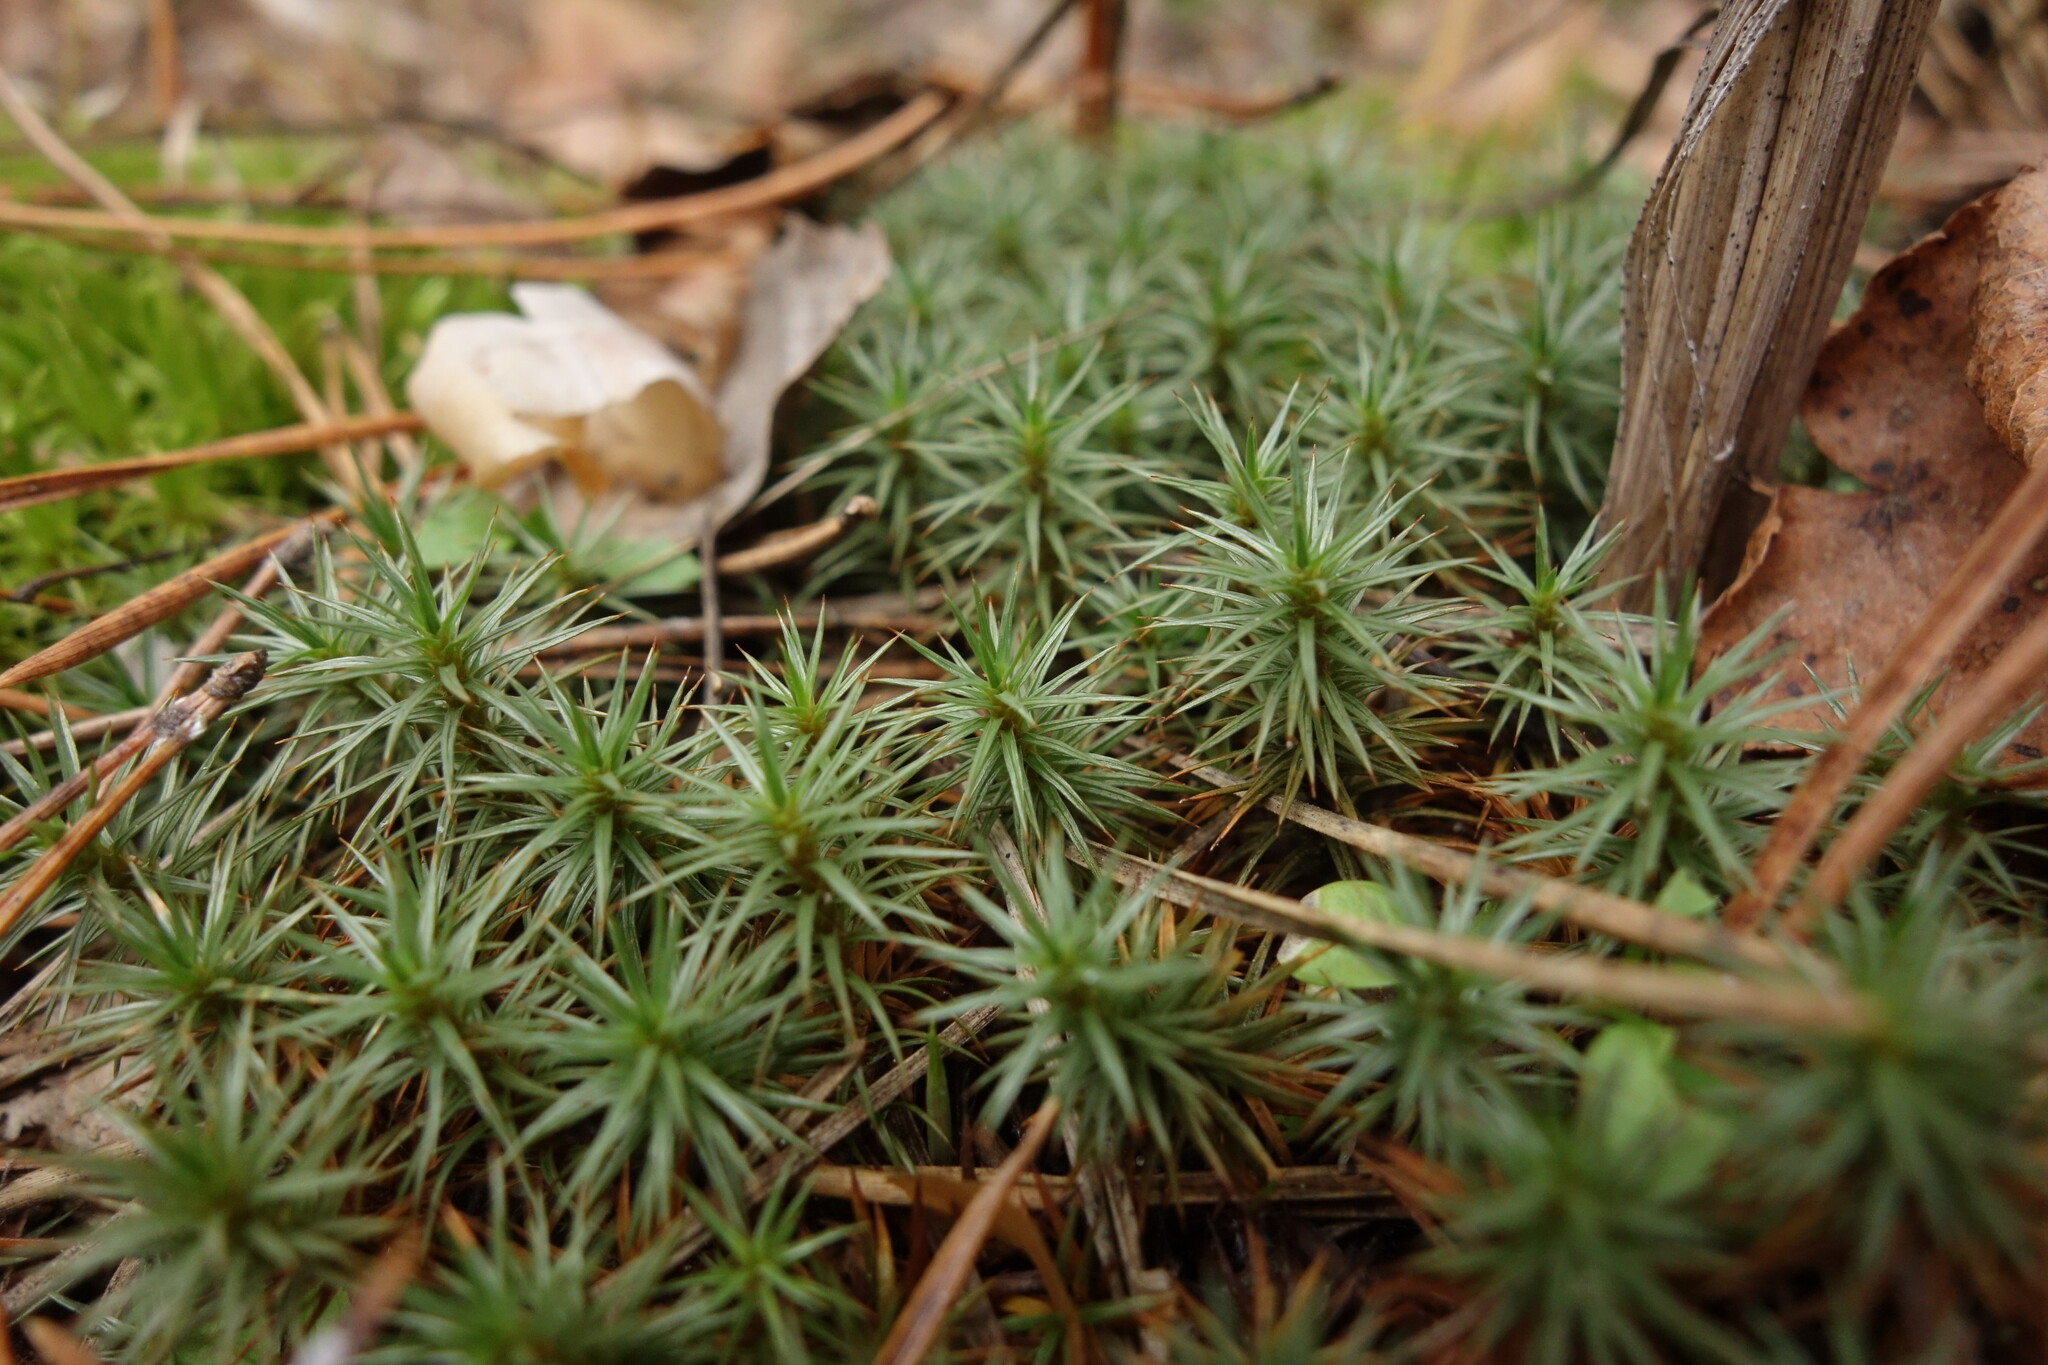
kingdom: Plantae
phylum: Bryophyta
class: Polytrichopsida
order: Polytrichales
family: Polytrichaceae
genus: Polytrichum
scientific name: Polytrichum juniperinum
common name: Juniper haircap moss
